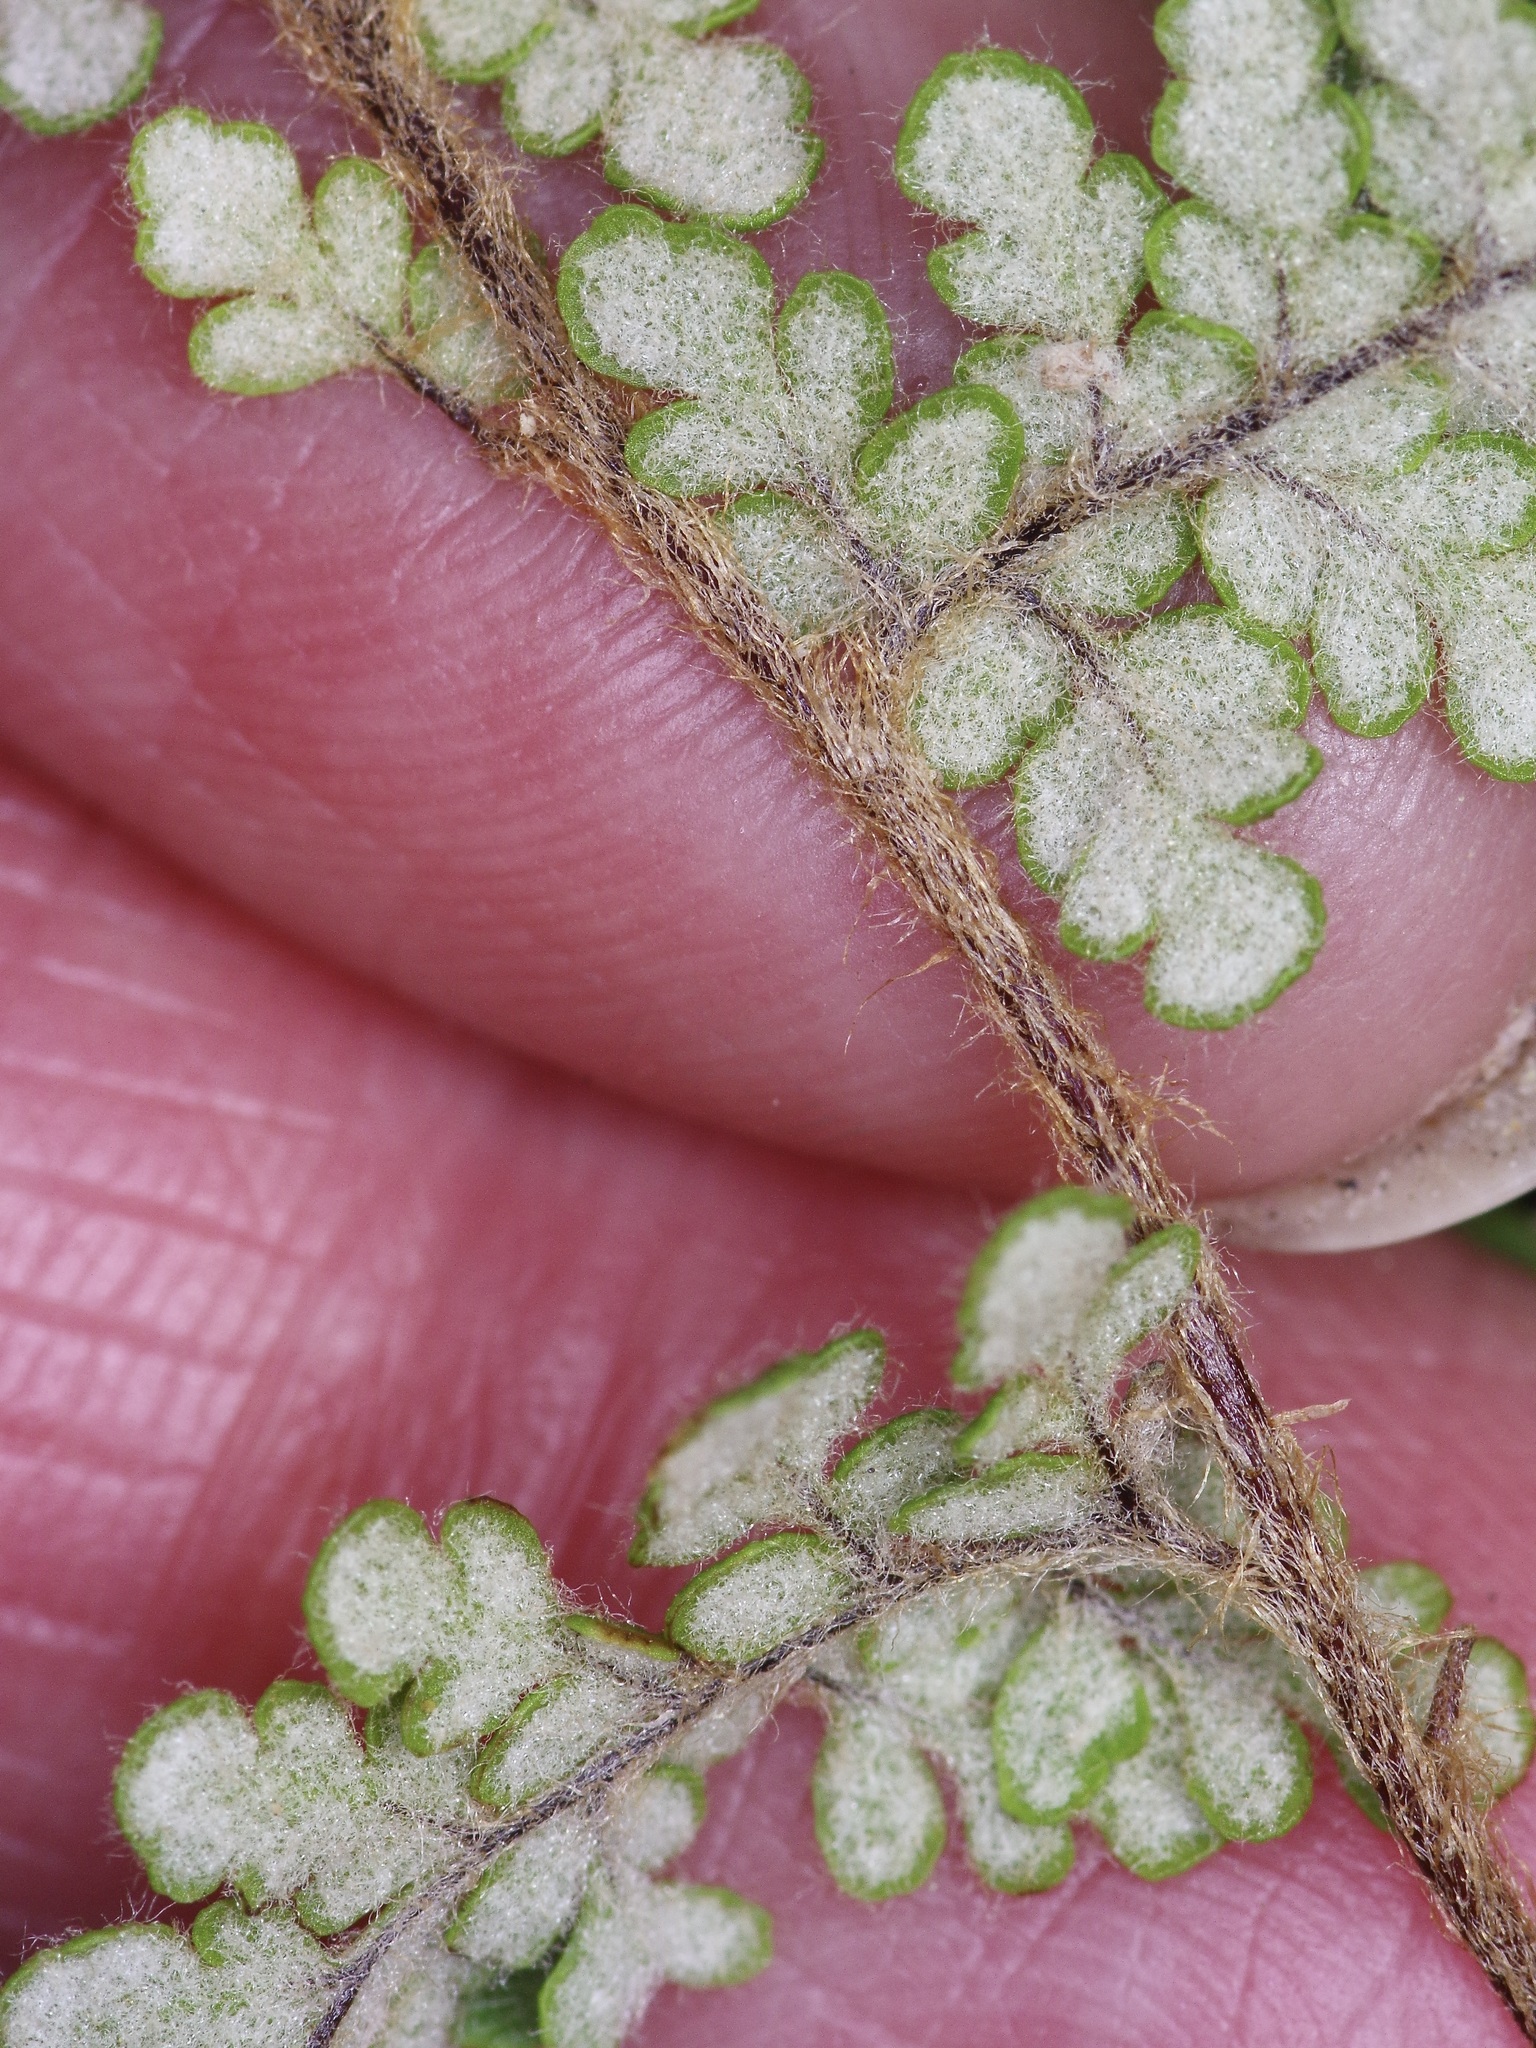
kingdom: Plantae
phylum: Tracheophyta
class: Polypodiopsida
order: Polypodiales
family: Pteridaceae
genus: Myriopteris
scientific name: Myriopteris tomentosa
